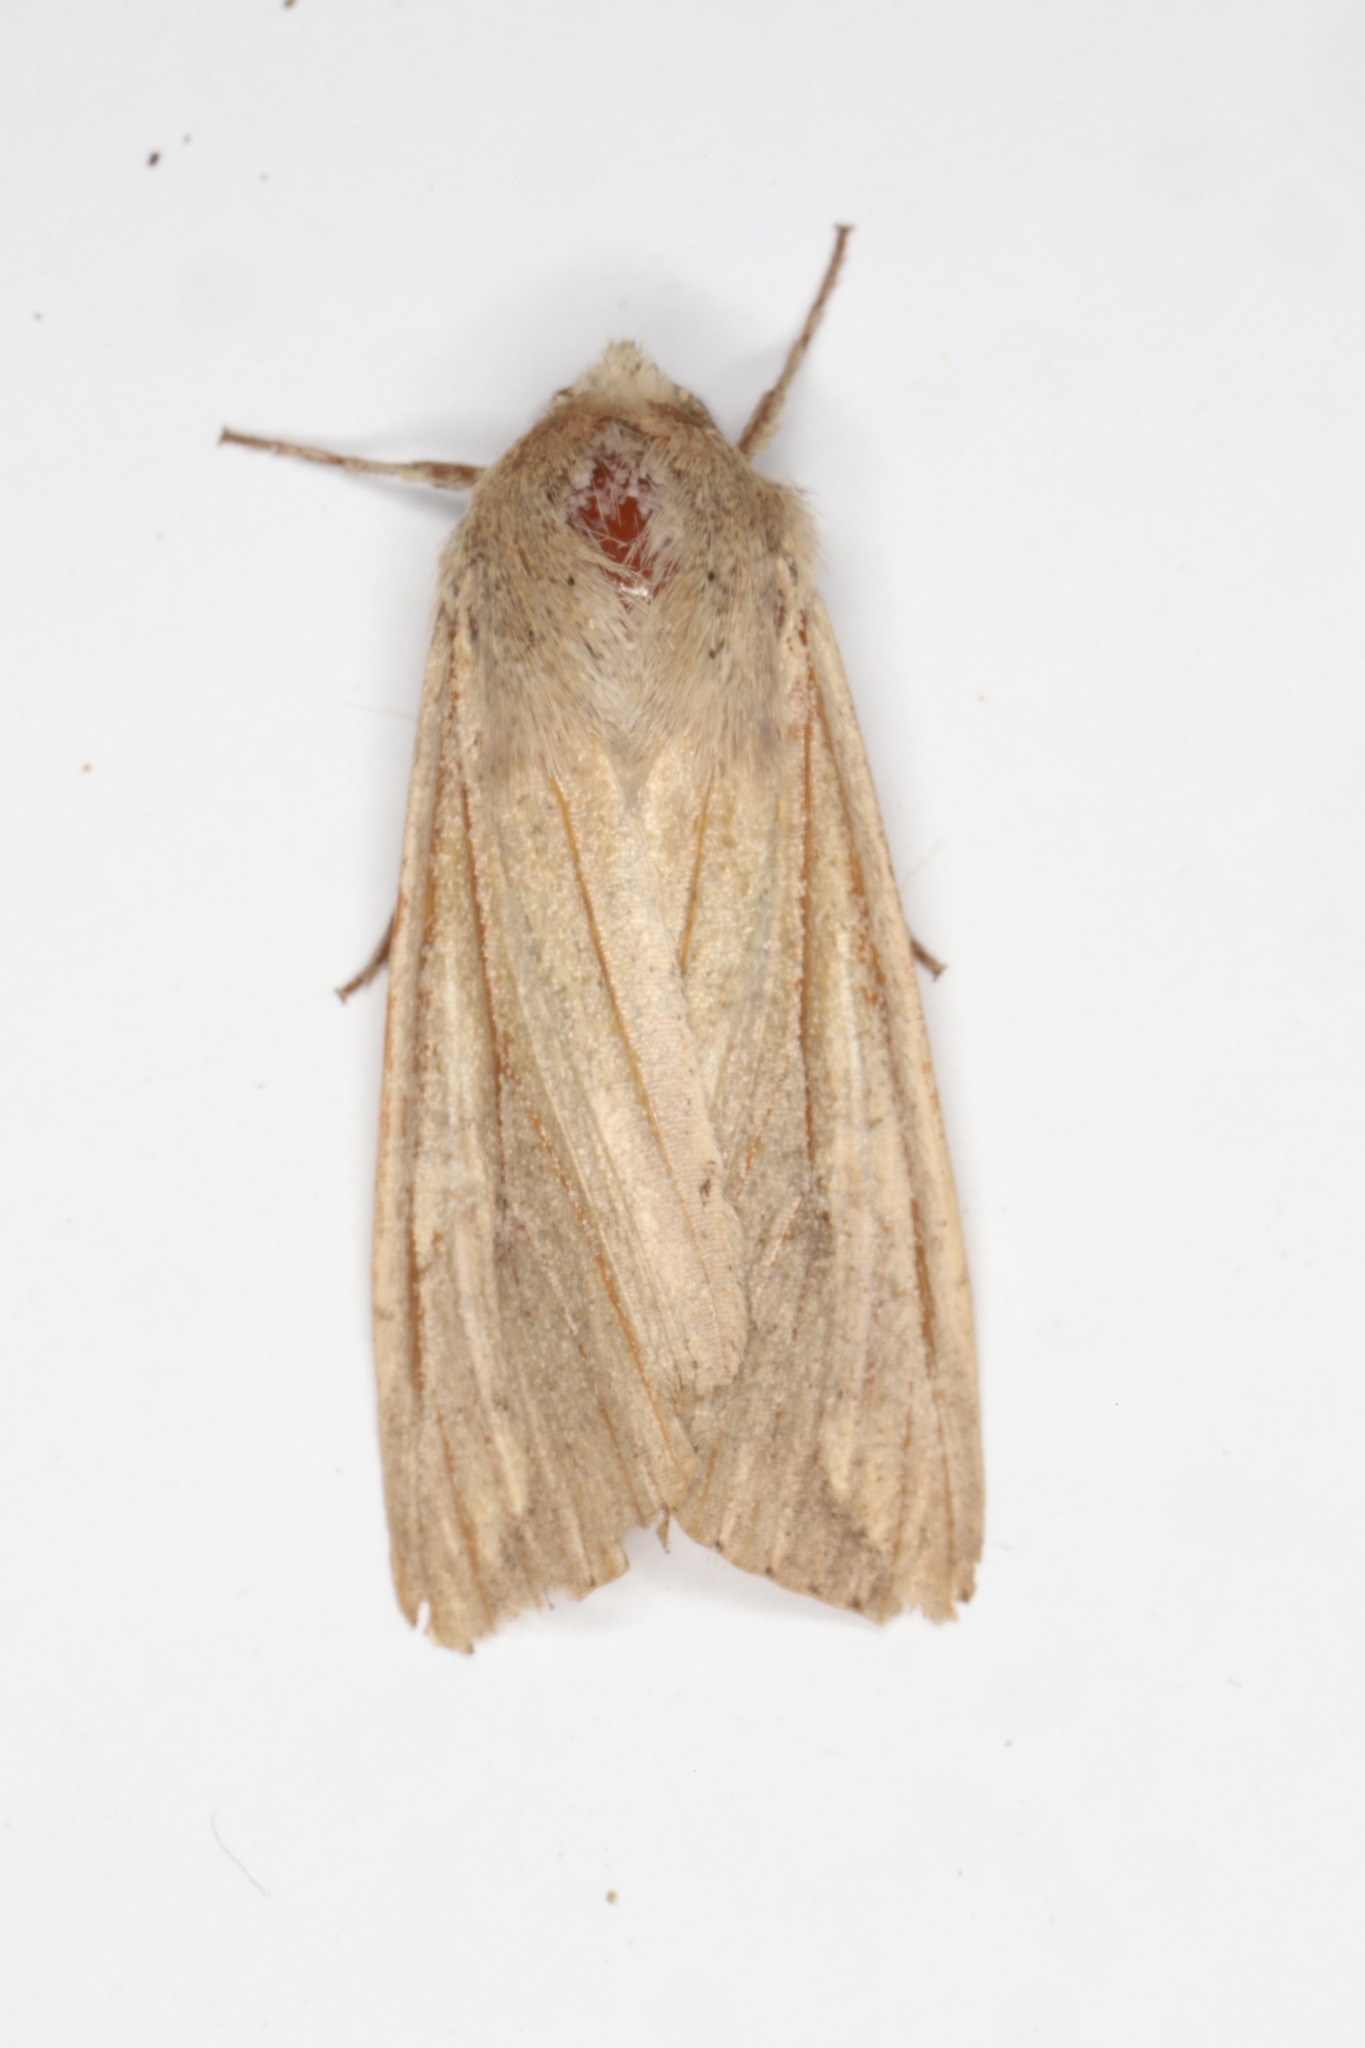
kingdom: Animalia
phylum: Arthropoda
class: Insecta
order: Lepidoptera
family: Noctuidae
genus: Mythimna
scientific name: Mythimna unipuncta
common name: White-speck
